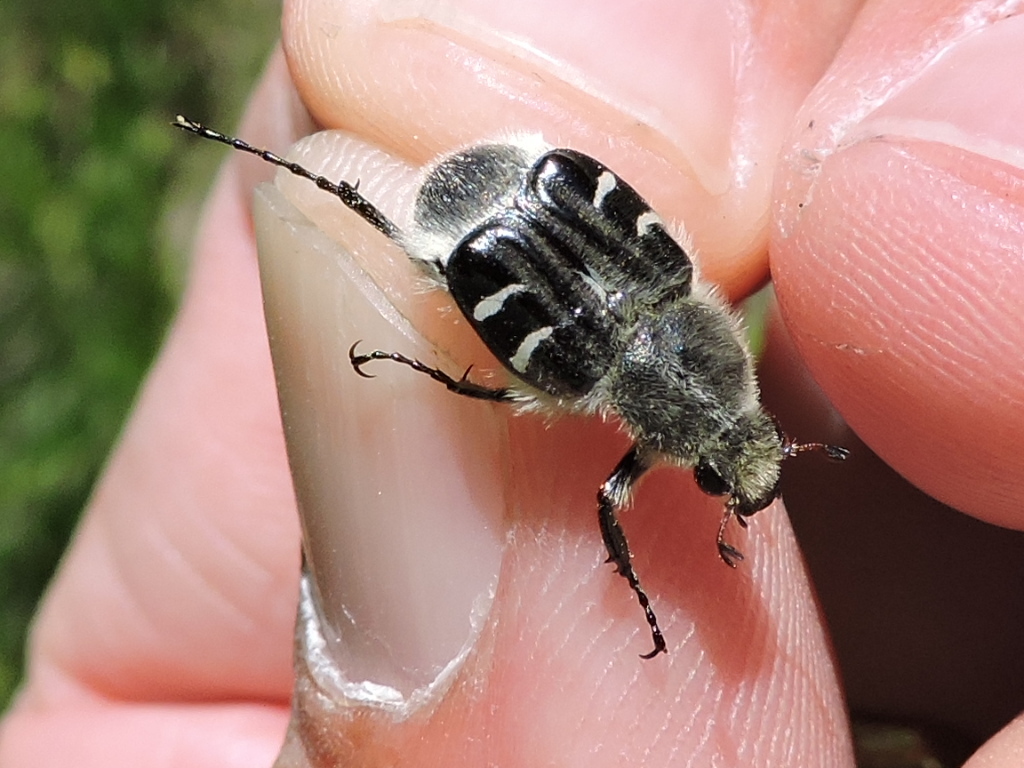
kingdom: Animalia
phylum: Arthropoda
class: Insecta
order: Coleoptera
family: Scarabaeidae
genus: Trichiotinus
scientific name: Trichiotinus texanus
